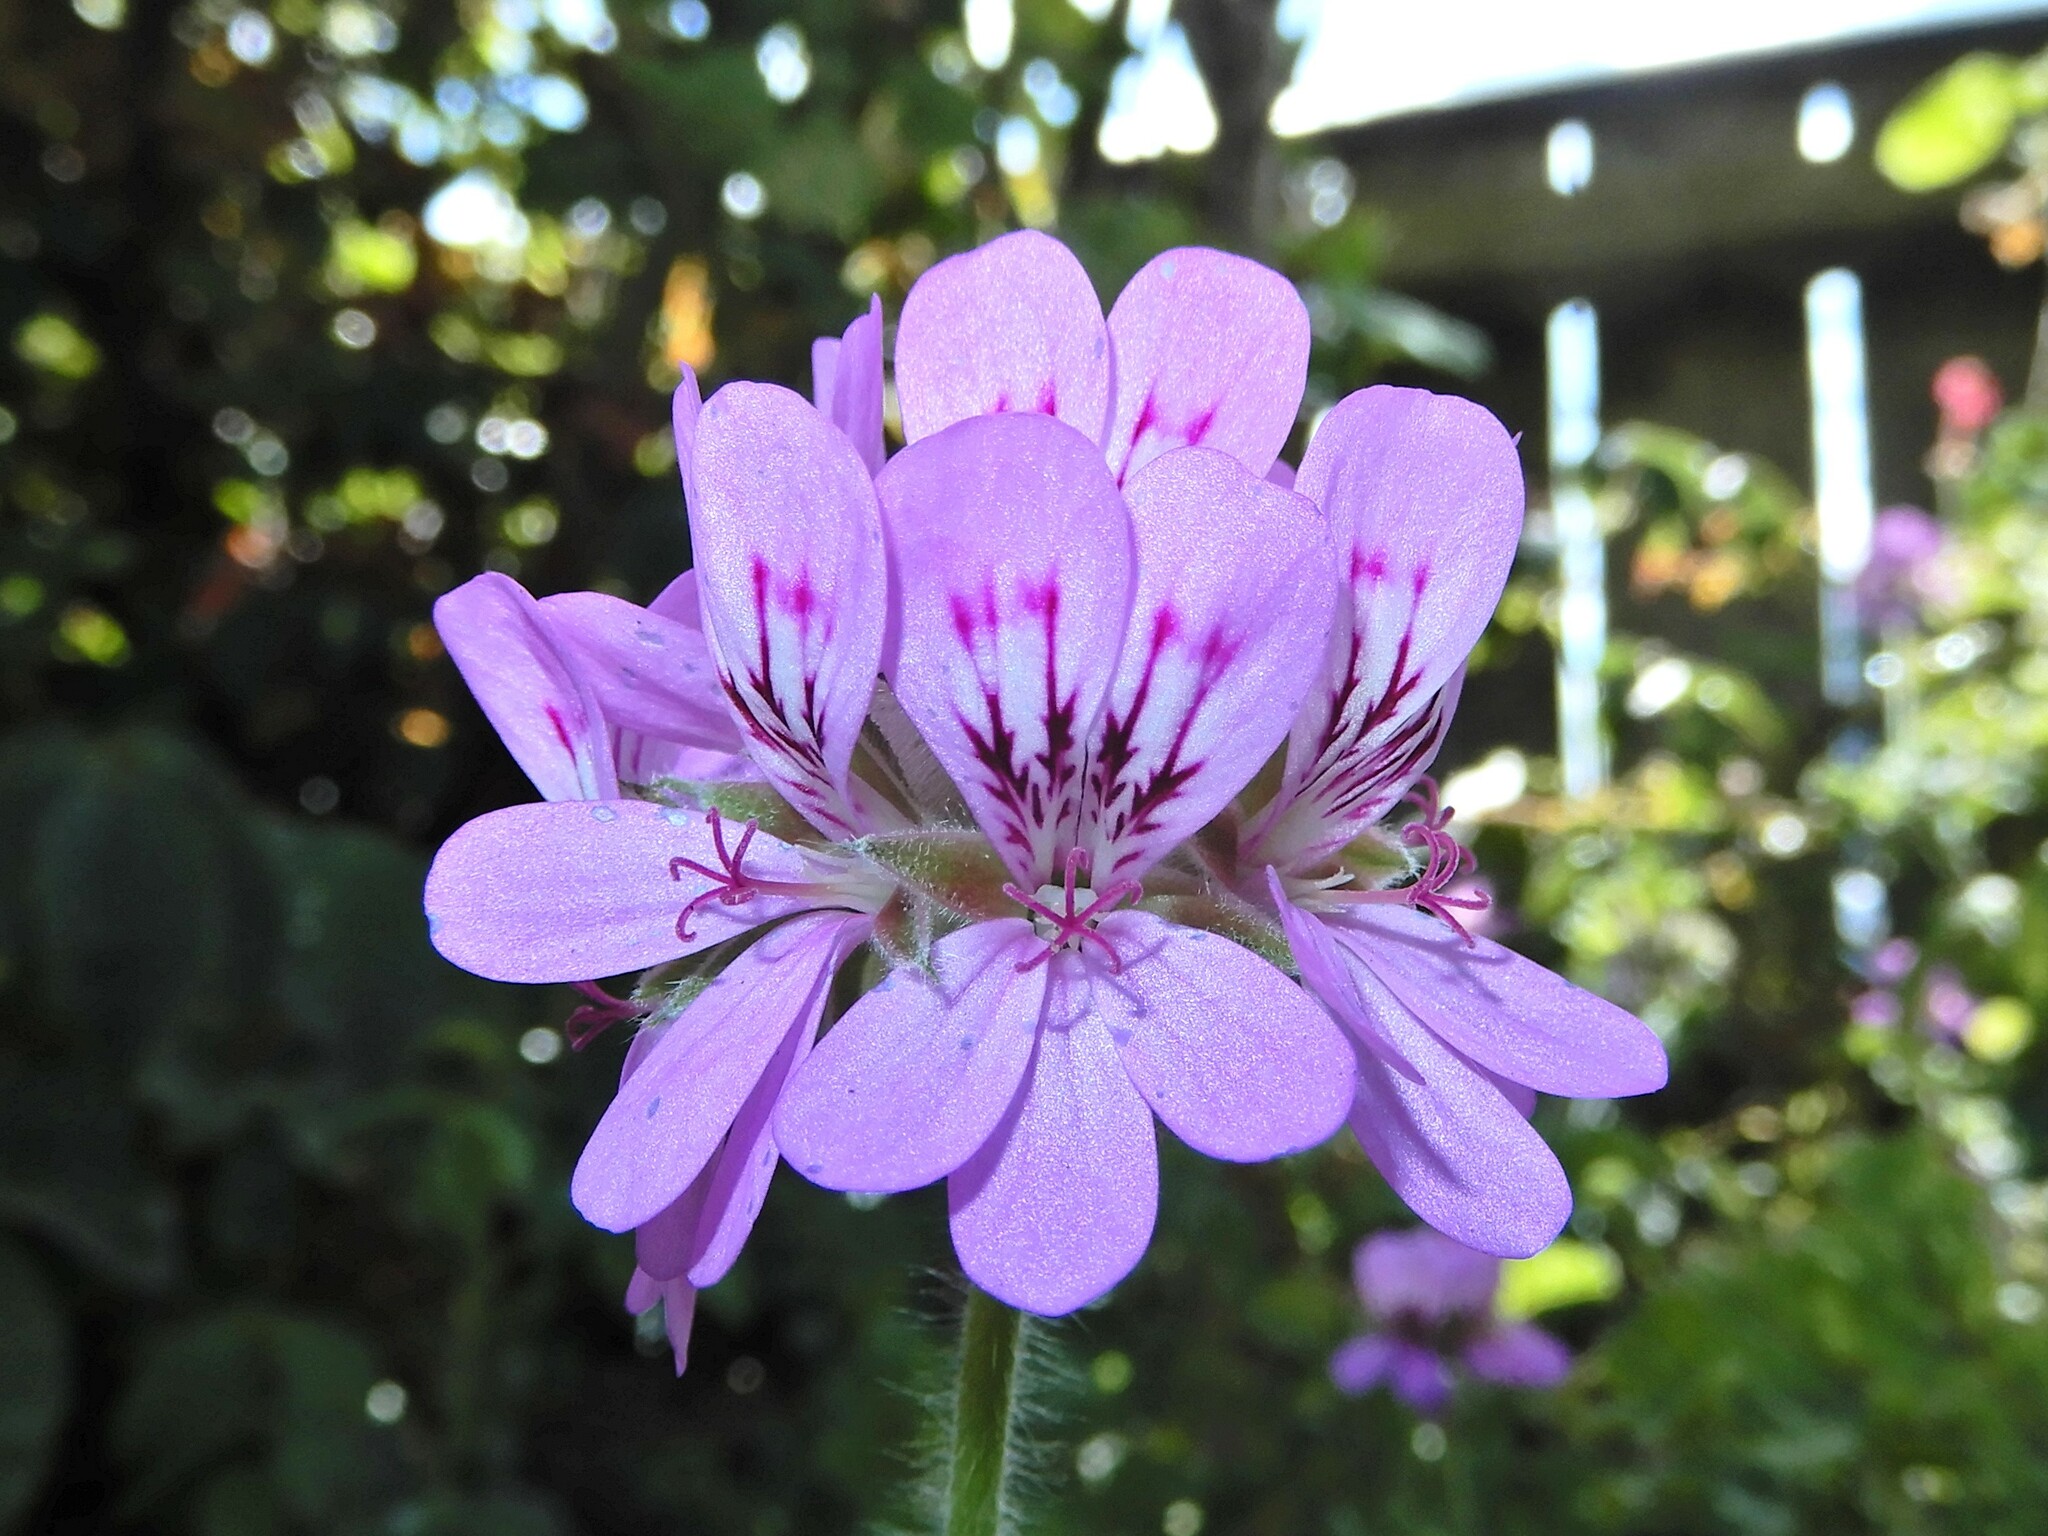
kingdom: Plantae
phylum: Tracheophyta
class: Magnoliopsida
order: Geraniales
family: Geraniaceae
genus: Pelargonium
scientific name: Pelargonium capitatum
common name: Rose scented geranium
